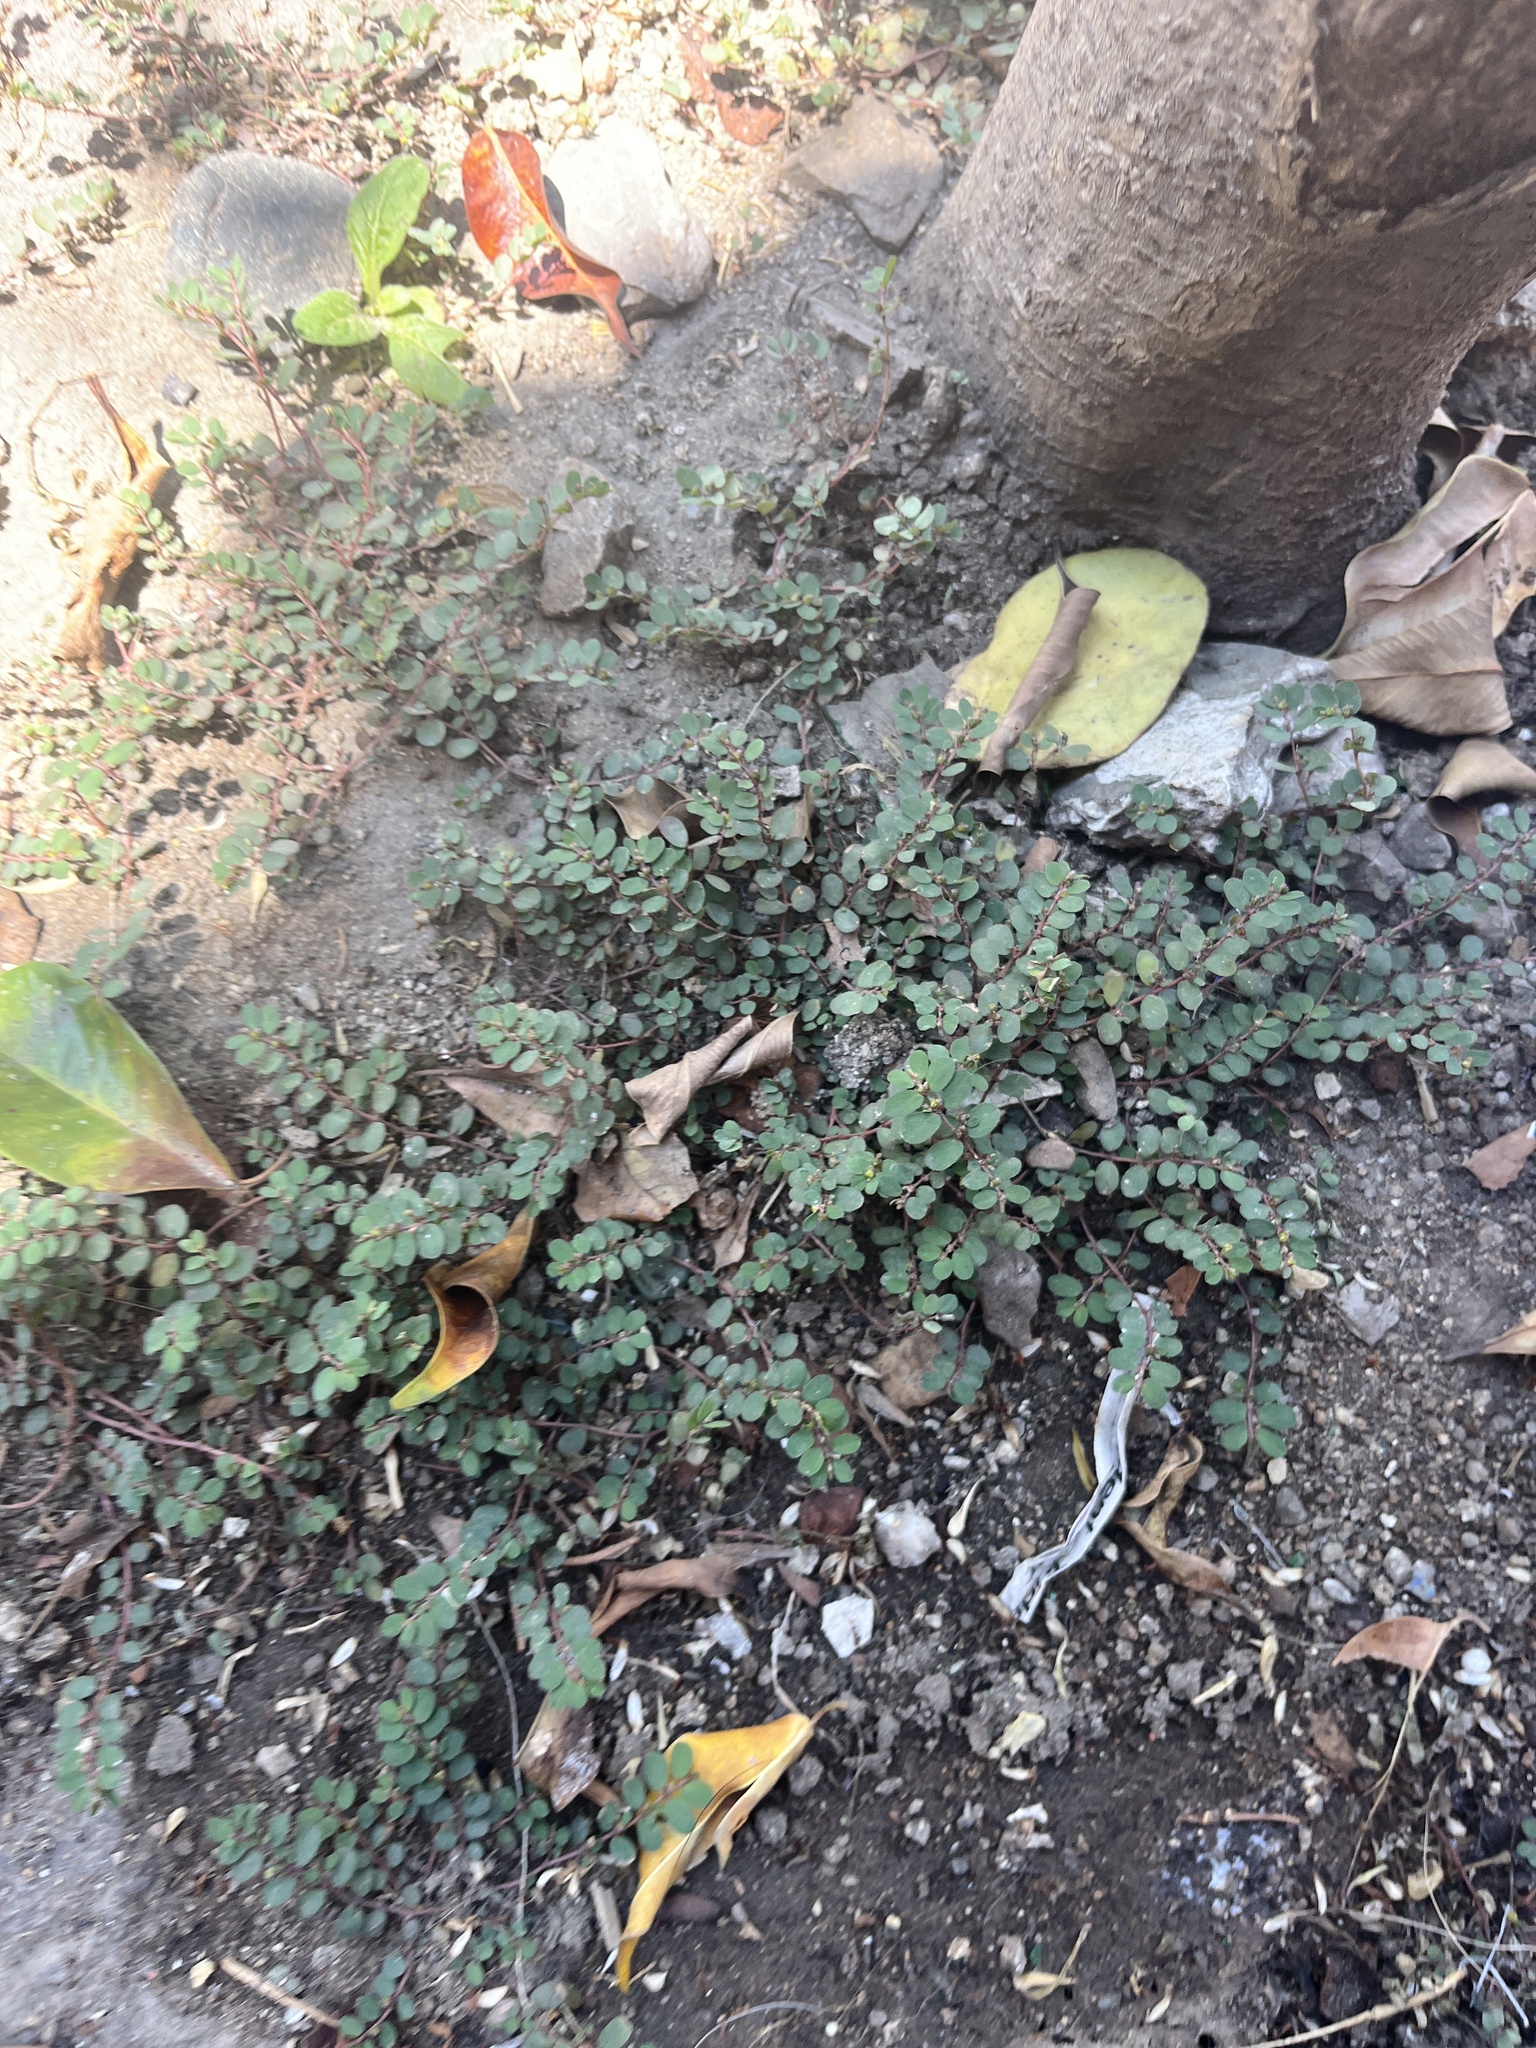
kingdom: Plantae
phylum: Tracheophyta
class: Magnoliopsida
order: Malpighiales
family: Euphorbiaceae
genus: Euphorbia
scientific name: Euphorbia prostrata
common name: Prostrate sandmat
